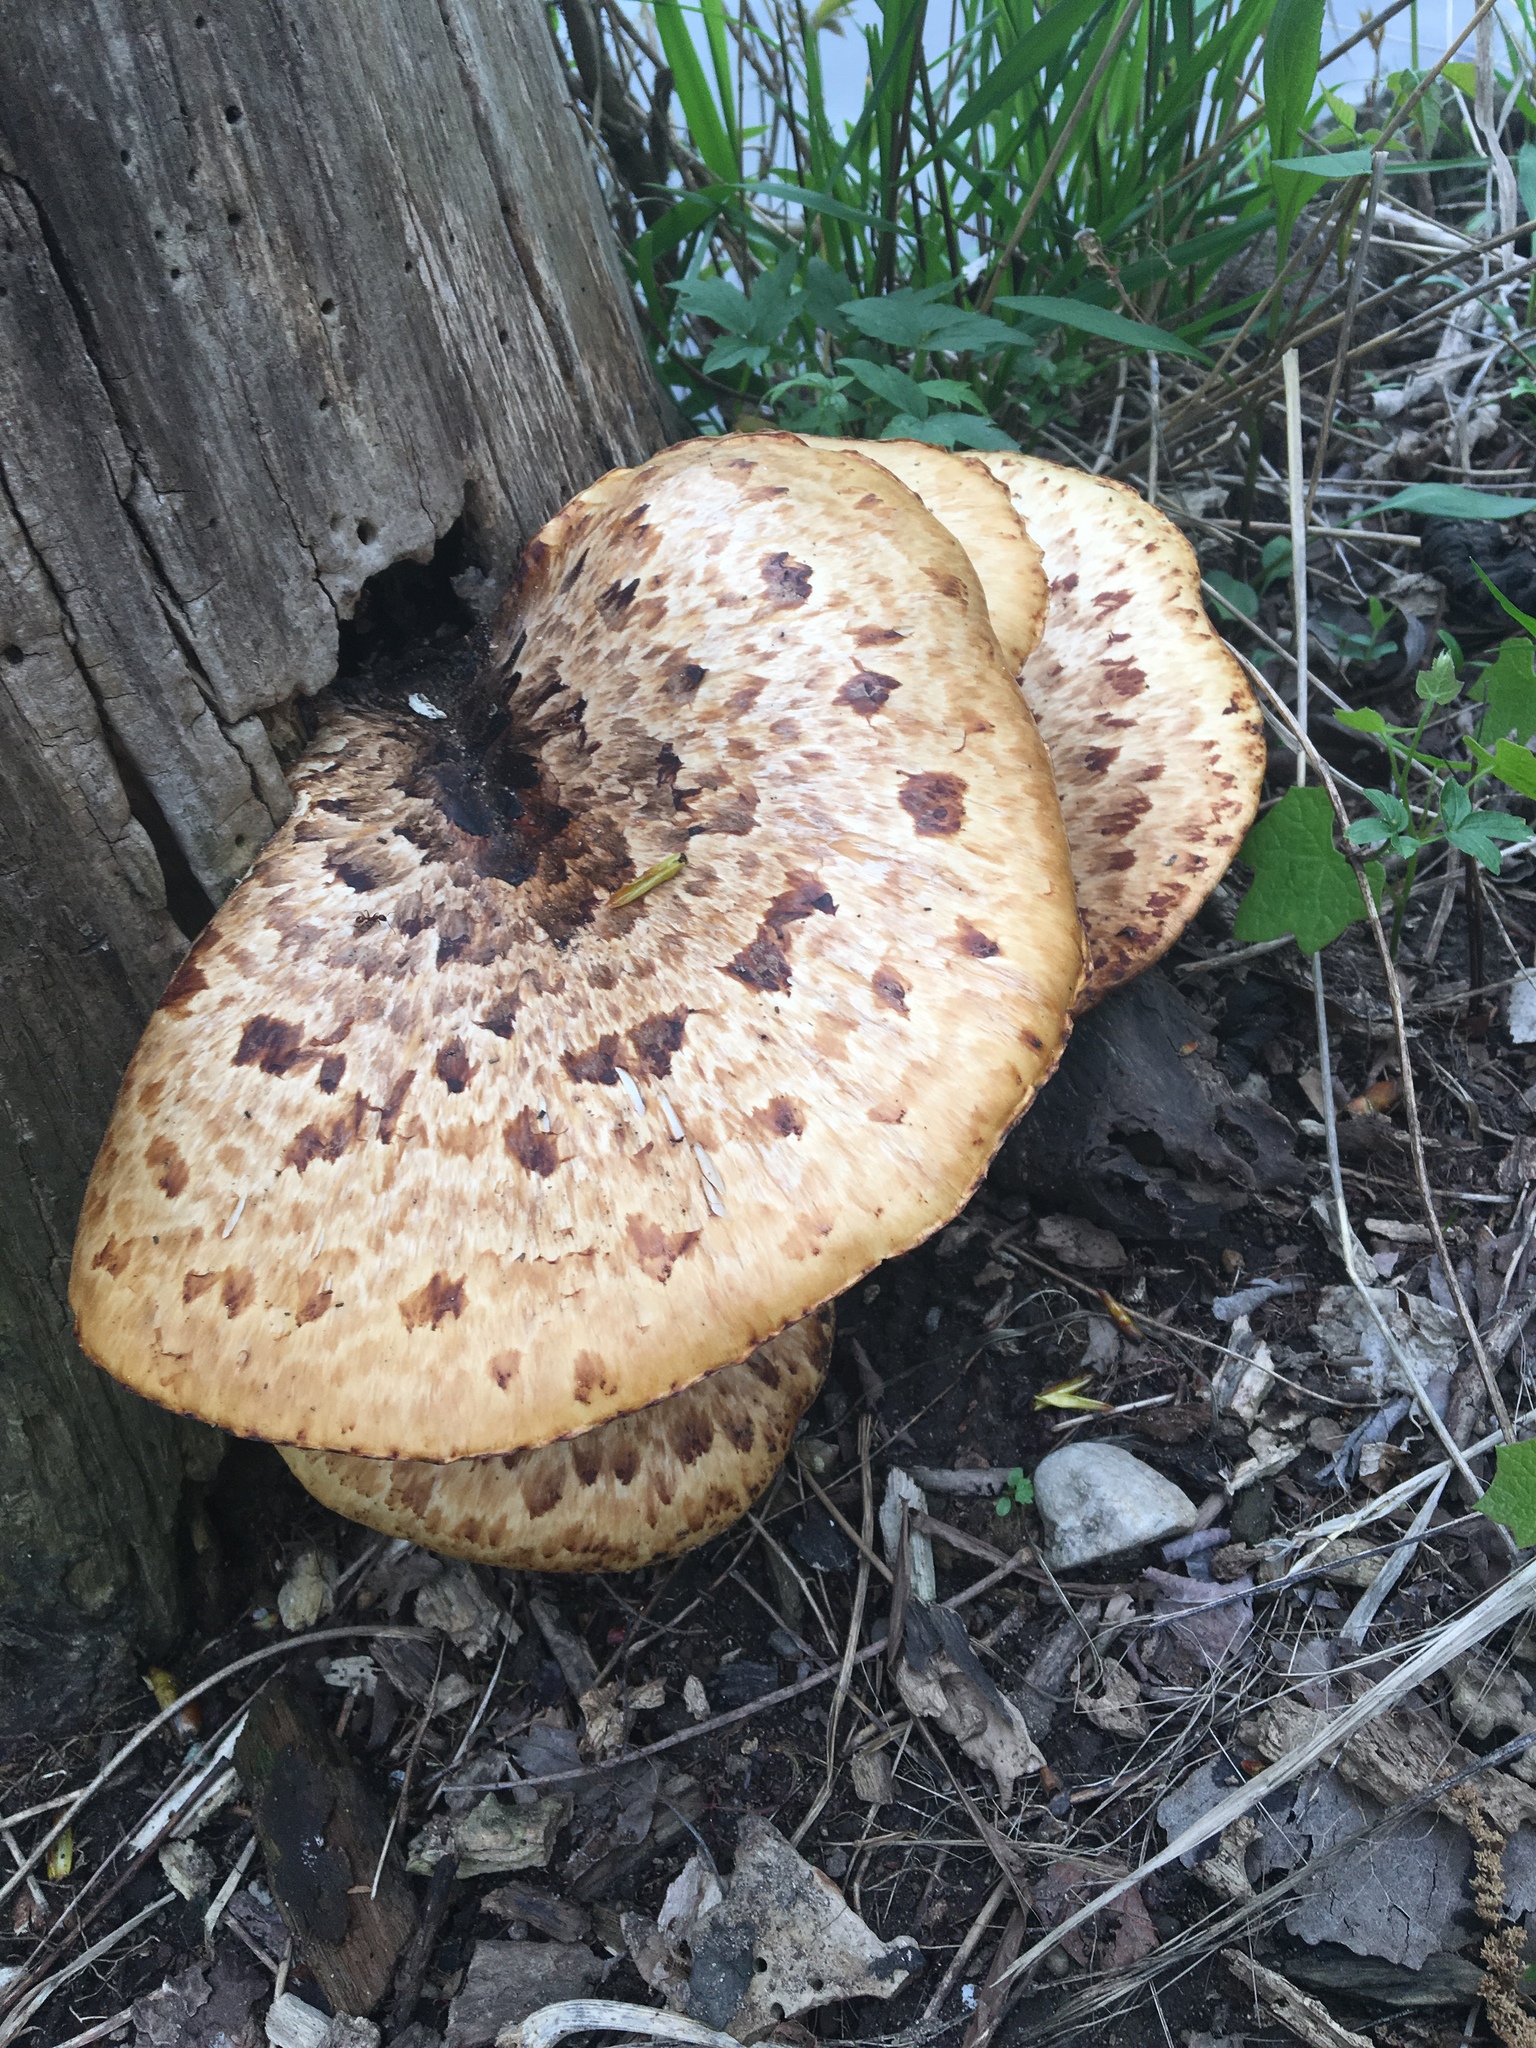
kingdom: Fungi
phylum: Basidiomycota
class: Agaricomycetes
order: Polyporales
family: Polyporaceae
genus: Cerioporus
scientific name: Cerioporus squamosus
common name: Dryad's saddle
